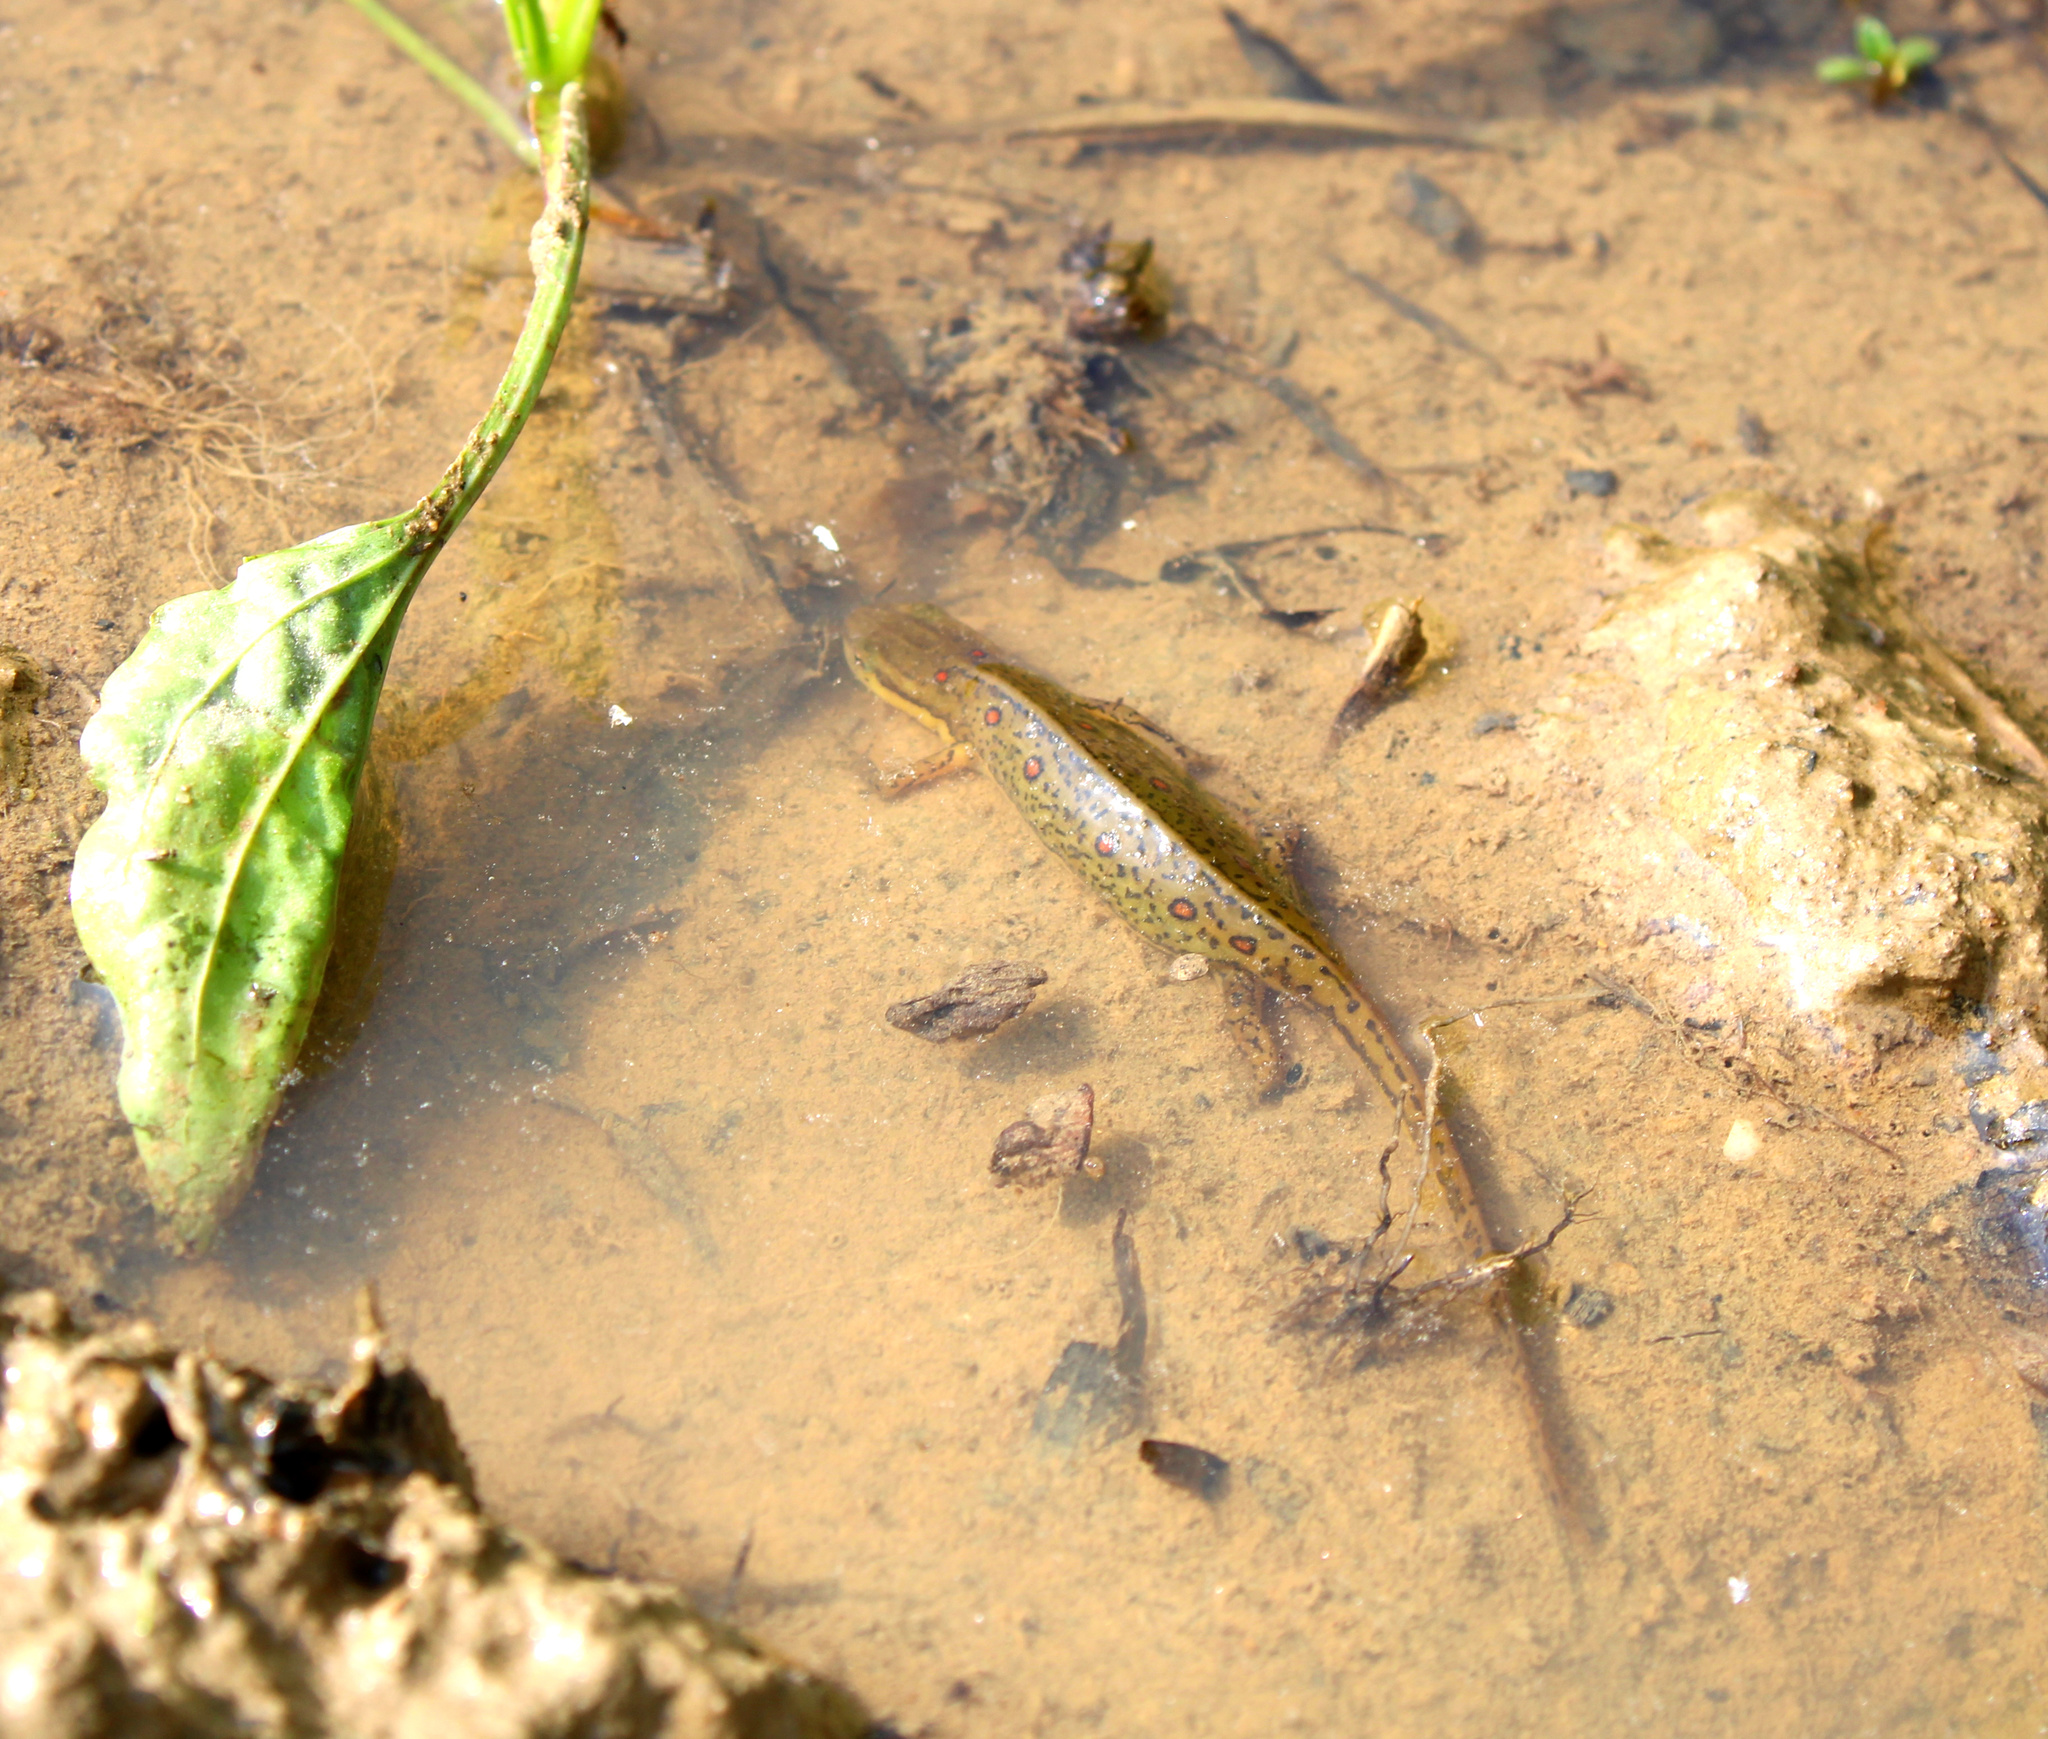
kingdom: Animalia
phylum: Chordata
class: Amphibia
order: Caudata
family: Salamandridae
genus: Notophthalmus
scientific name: Notophthalmus viridescens
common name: Eastern newt
